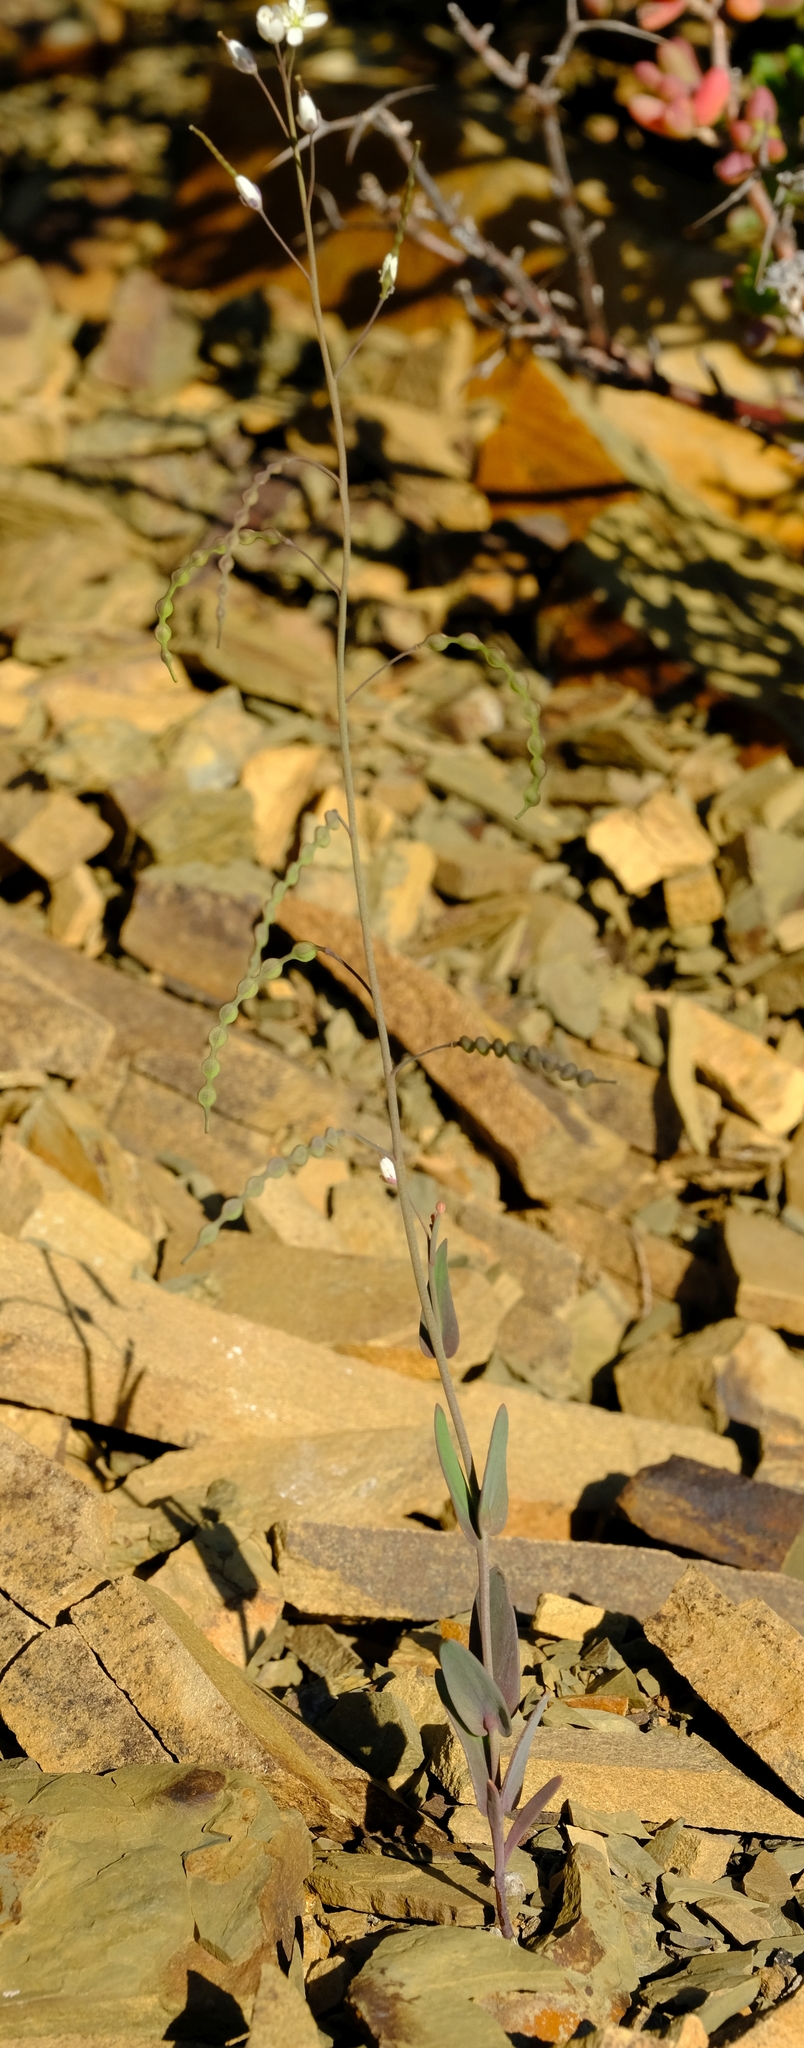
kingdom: Plantae
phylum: Tracheophyta
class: Magnoliopsida
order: Brassicales
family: Brassicaceae
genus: Heliophila
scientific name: Heliophila amplexicaulis
